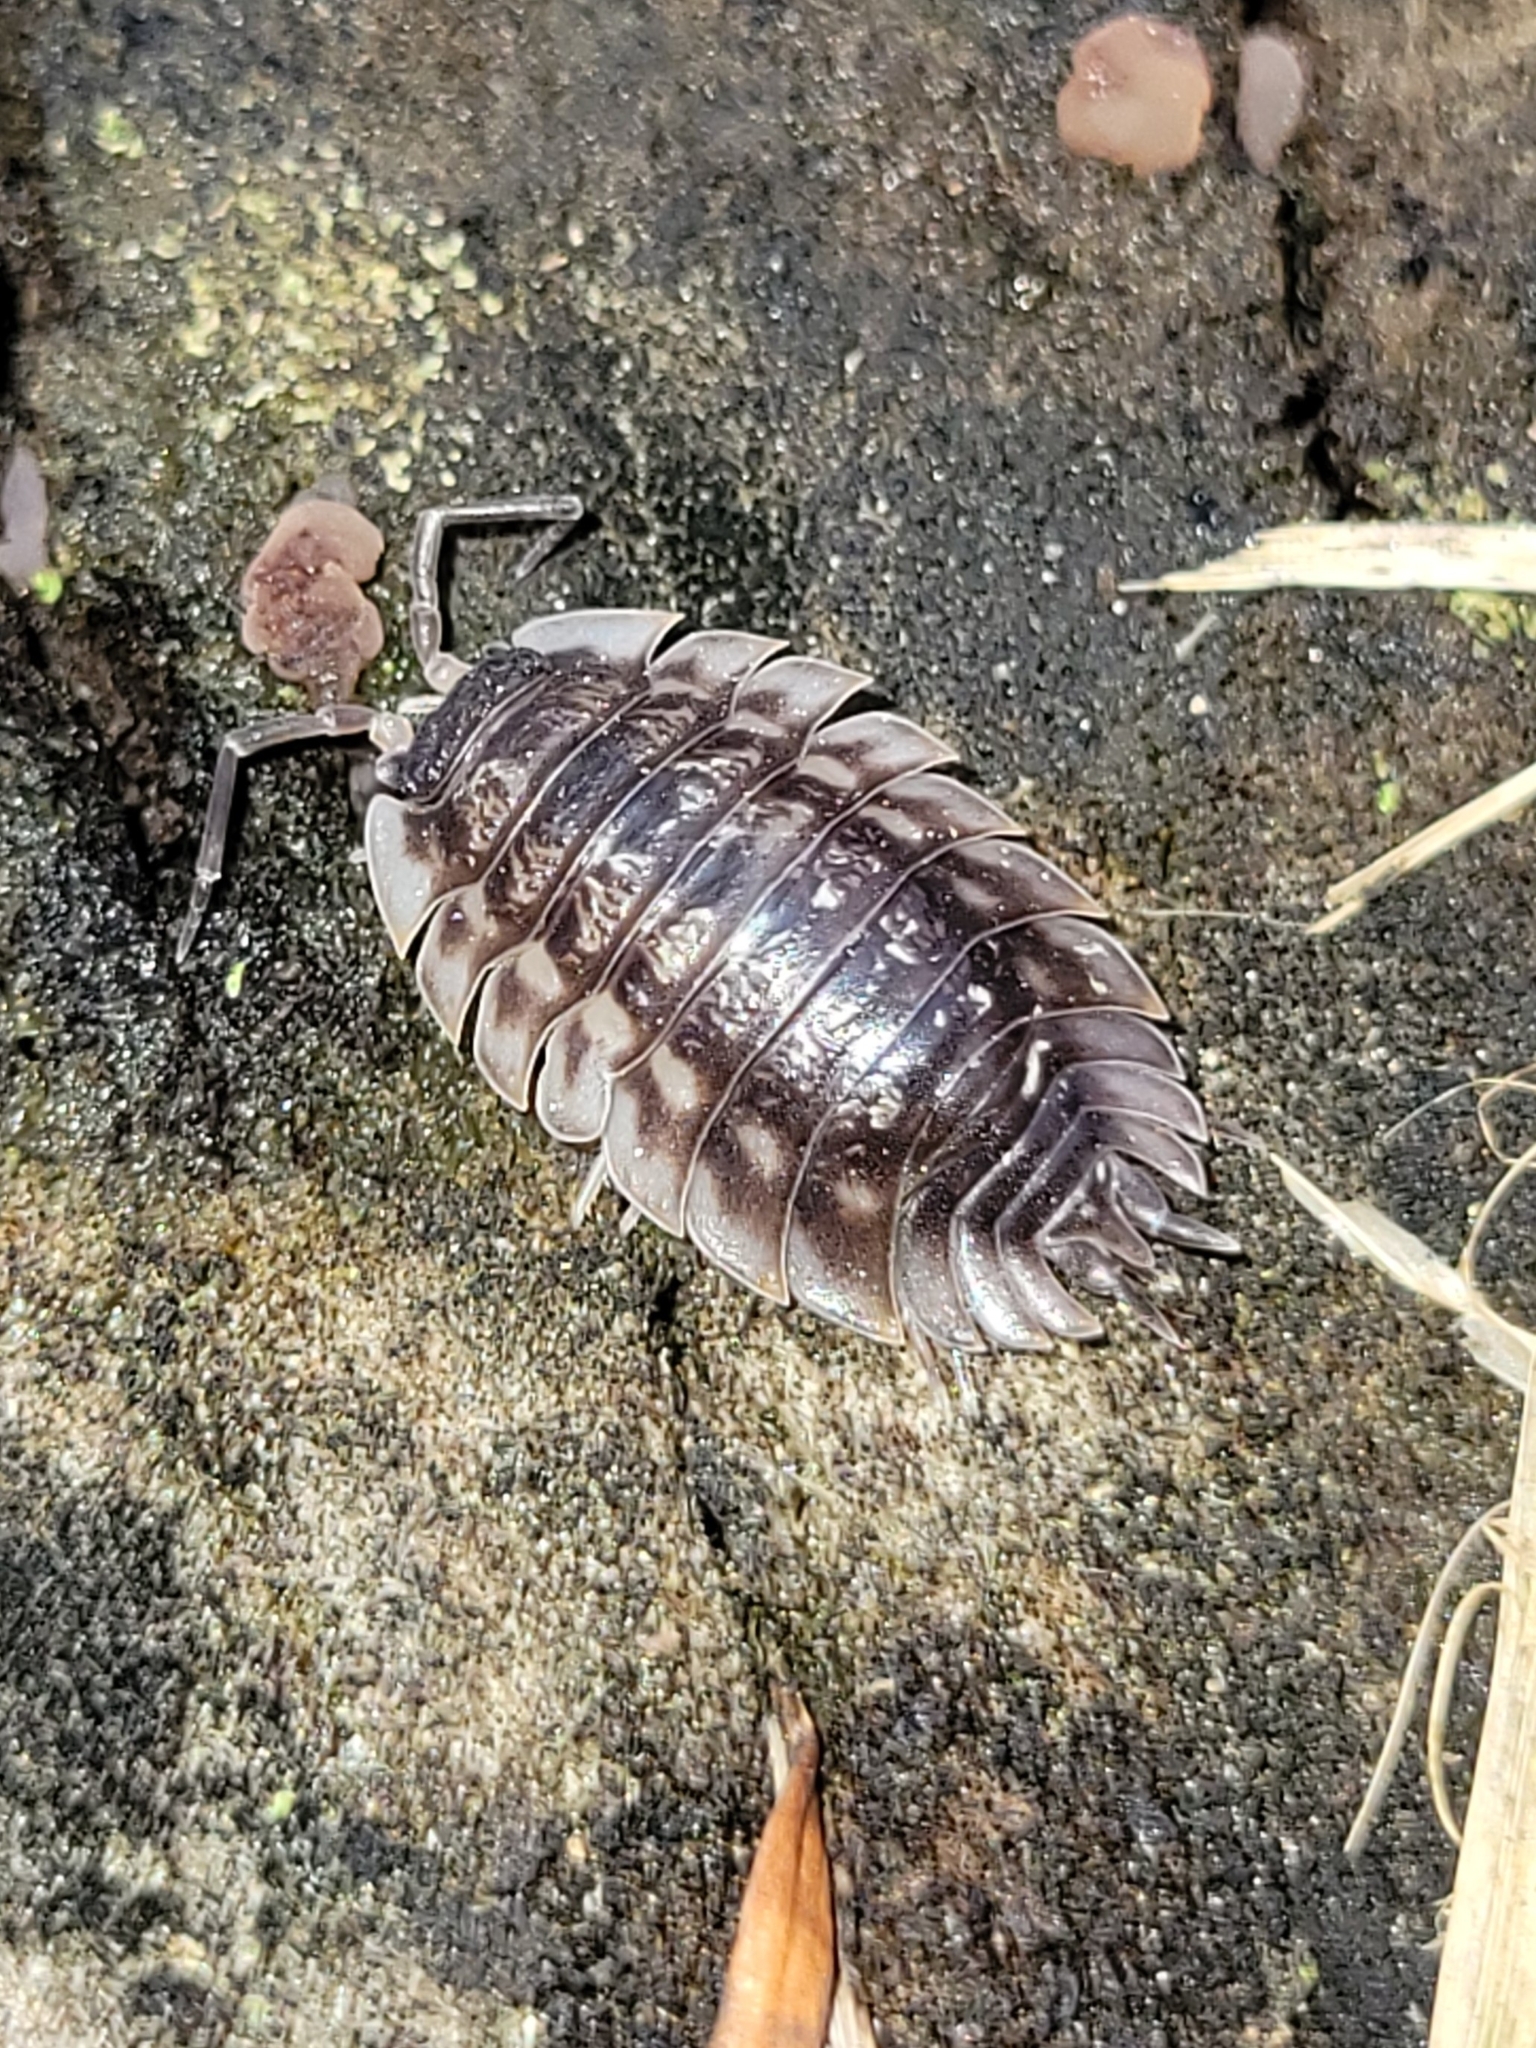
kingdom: Animalia
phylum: Arthropoda
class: Malacostraca
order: Isopoda
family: Oniscidae
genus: Oniscus
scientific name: Oniscus asellus
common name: Common shiny woodlouse
